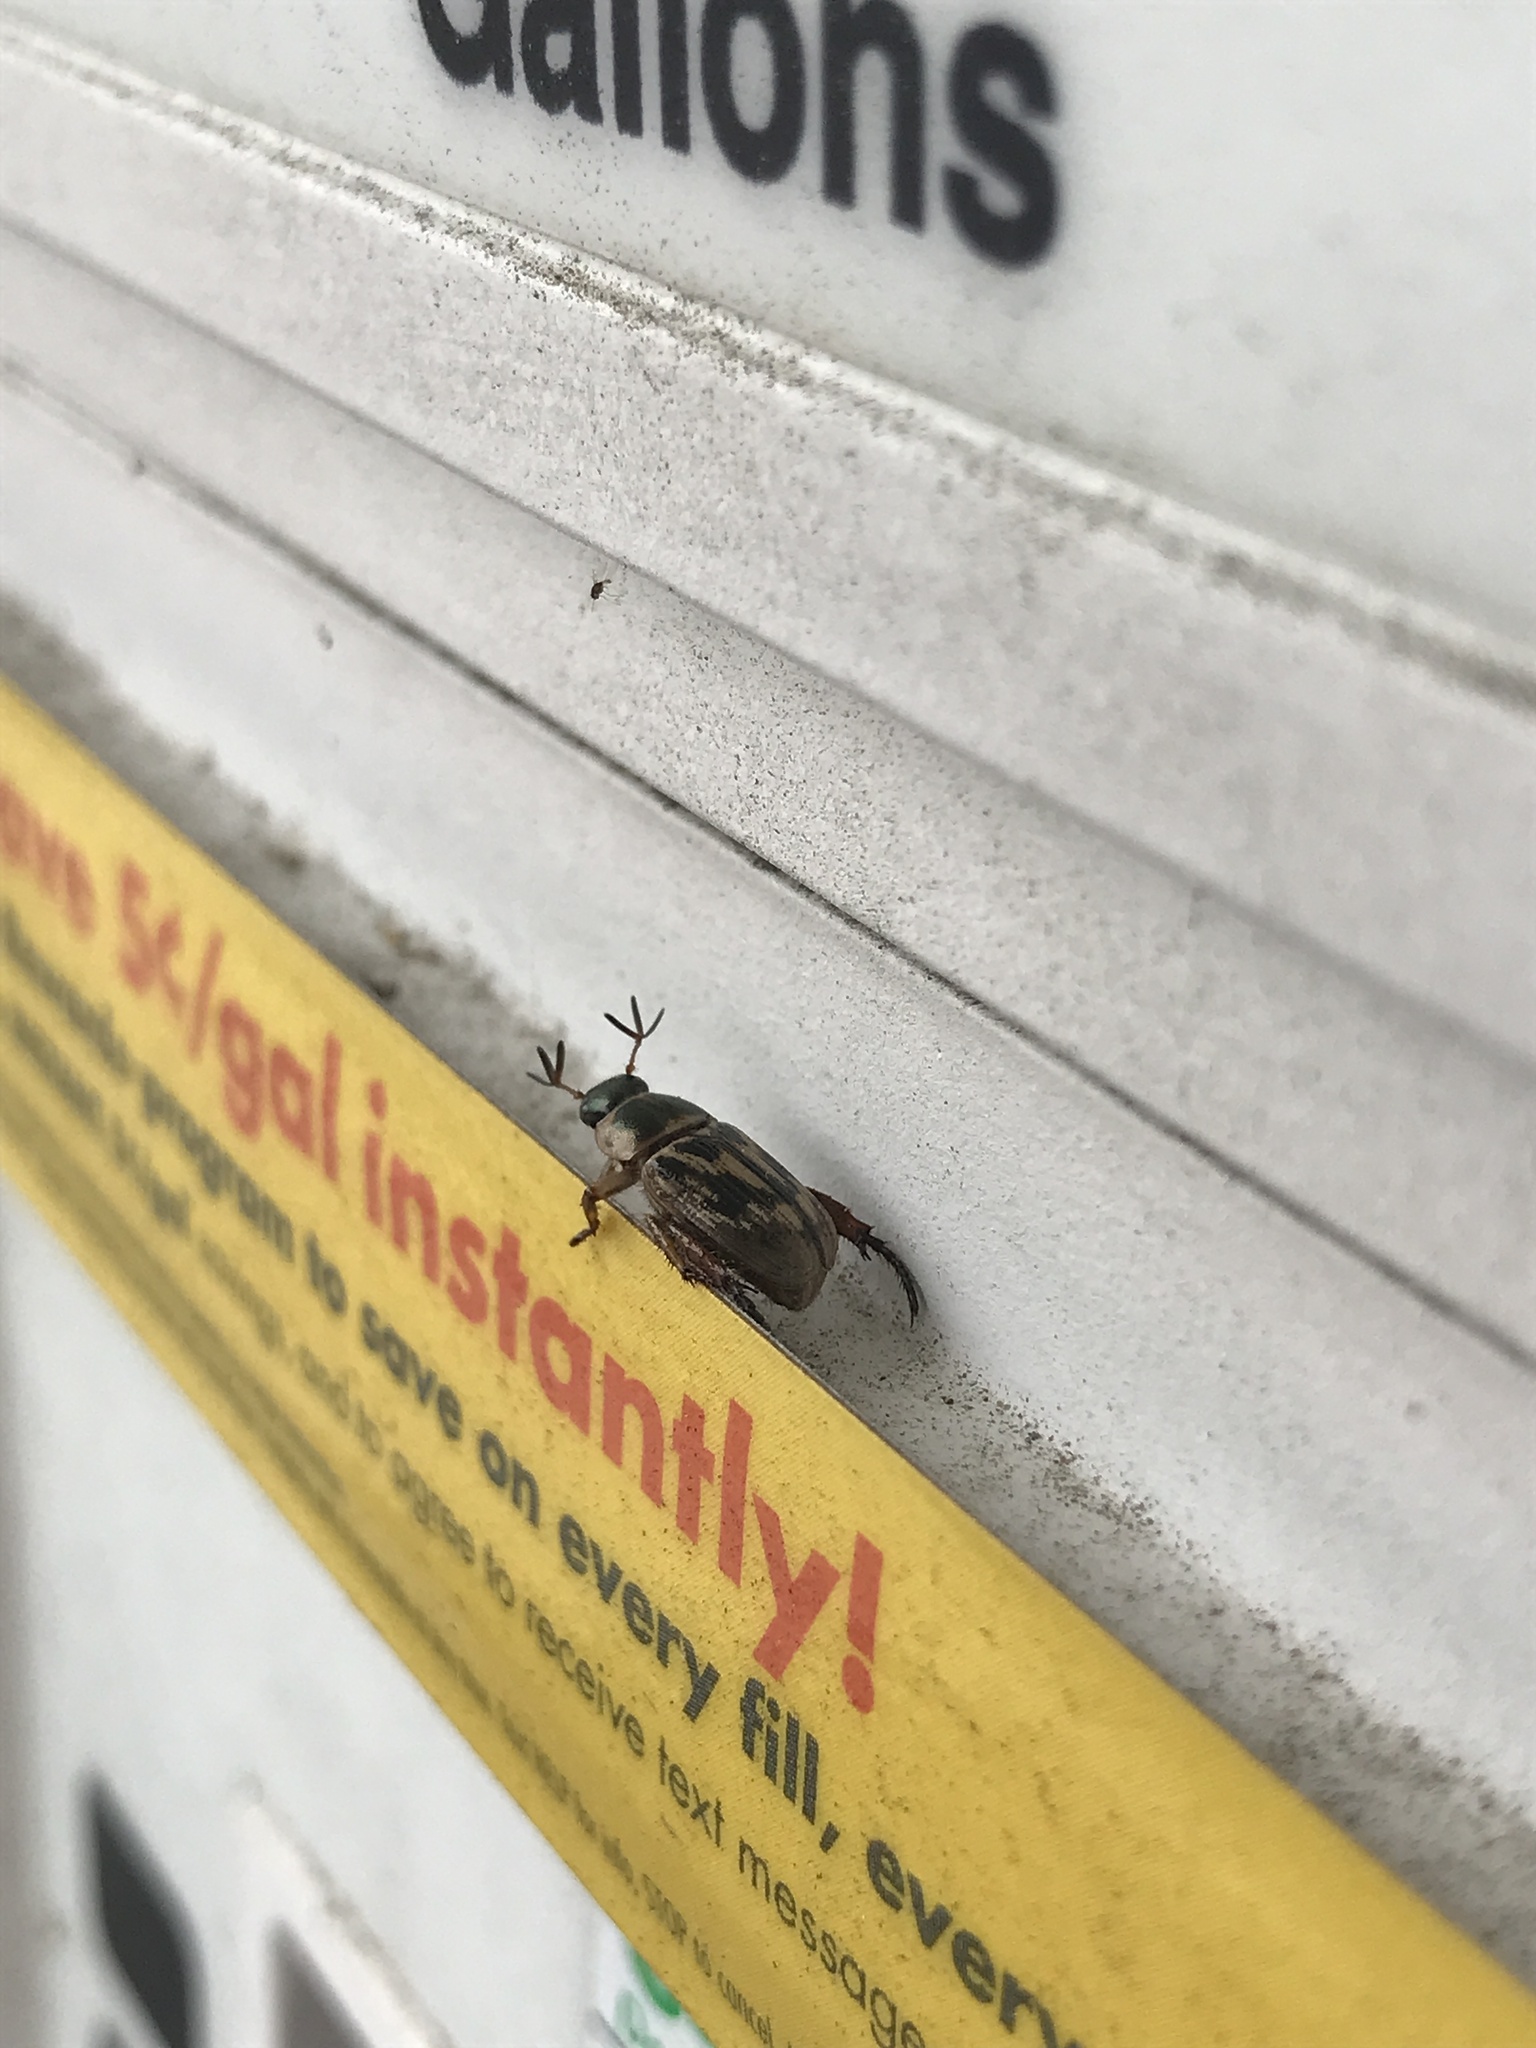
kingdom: Animalia
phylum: Arthropoda
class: Insecta
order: Coleoptera
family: Scarabaeidae
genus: Exomala
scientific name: Exomala orientalis
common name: Oriental beetle
